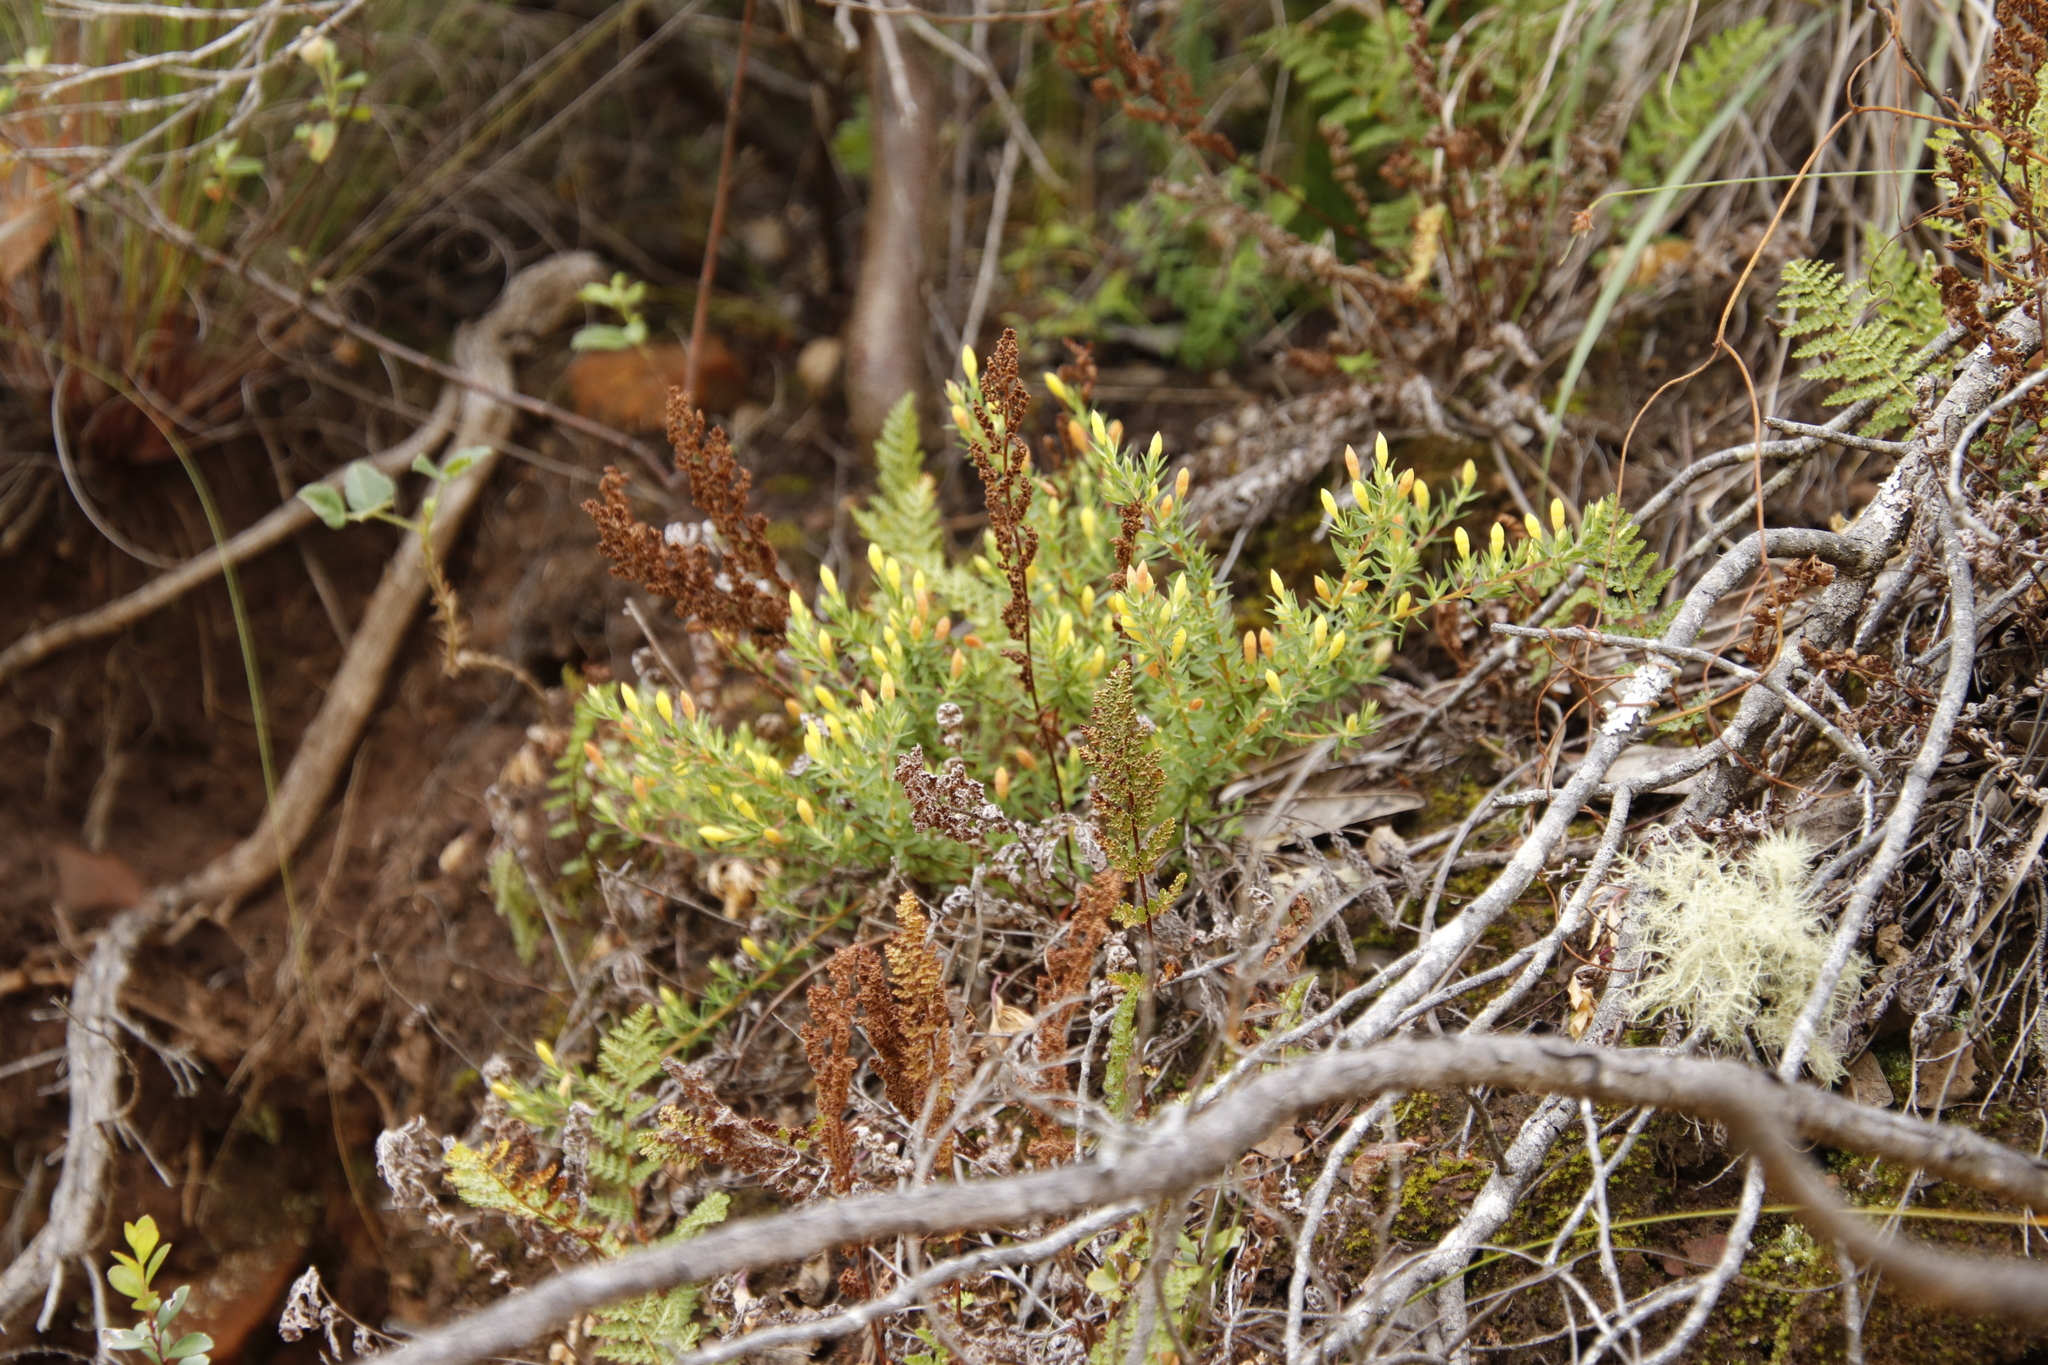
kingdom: Plantae
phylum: Tracheophyta
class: Magnoliopsida
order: Malvales
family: Thymelaeaceae
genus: Gnidia
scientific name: Gnidia juniperifolia
